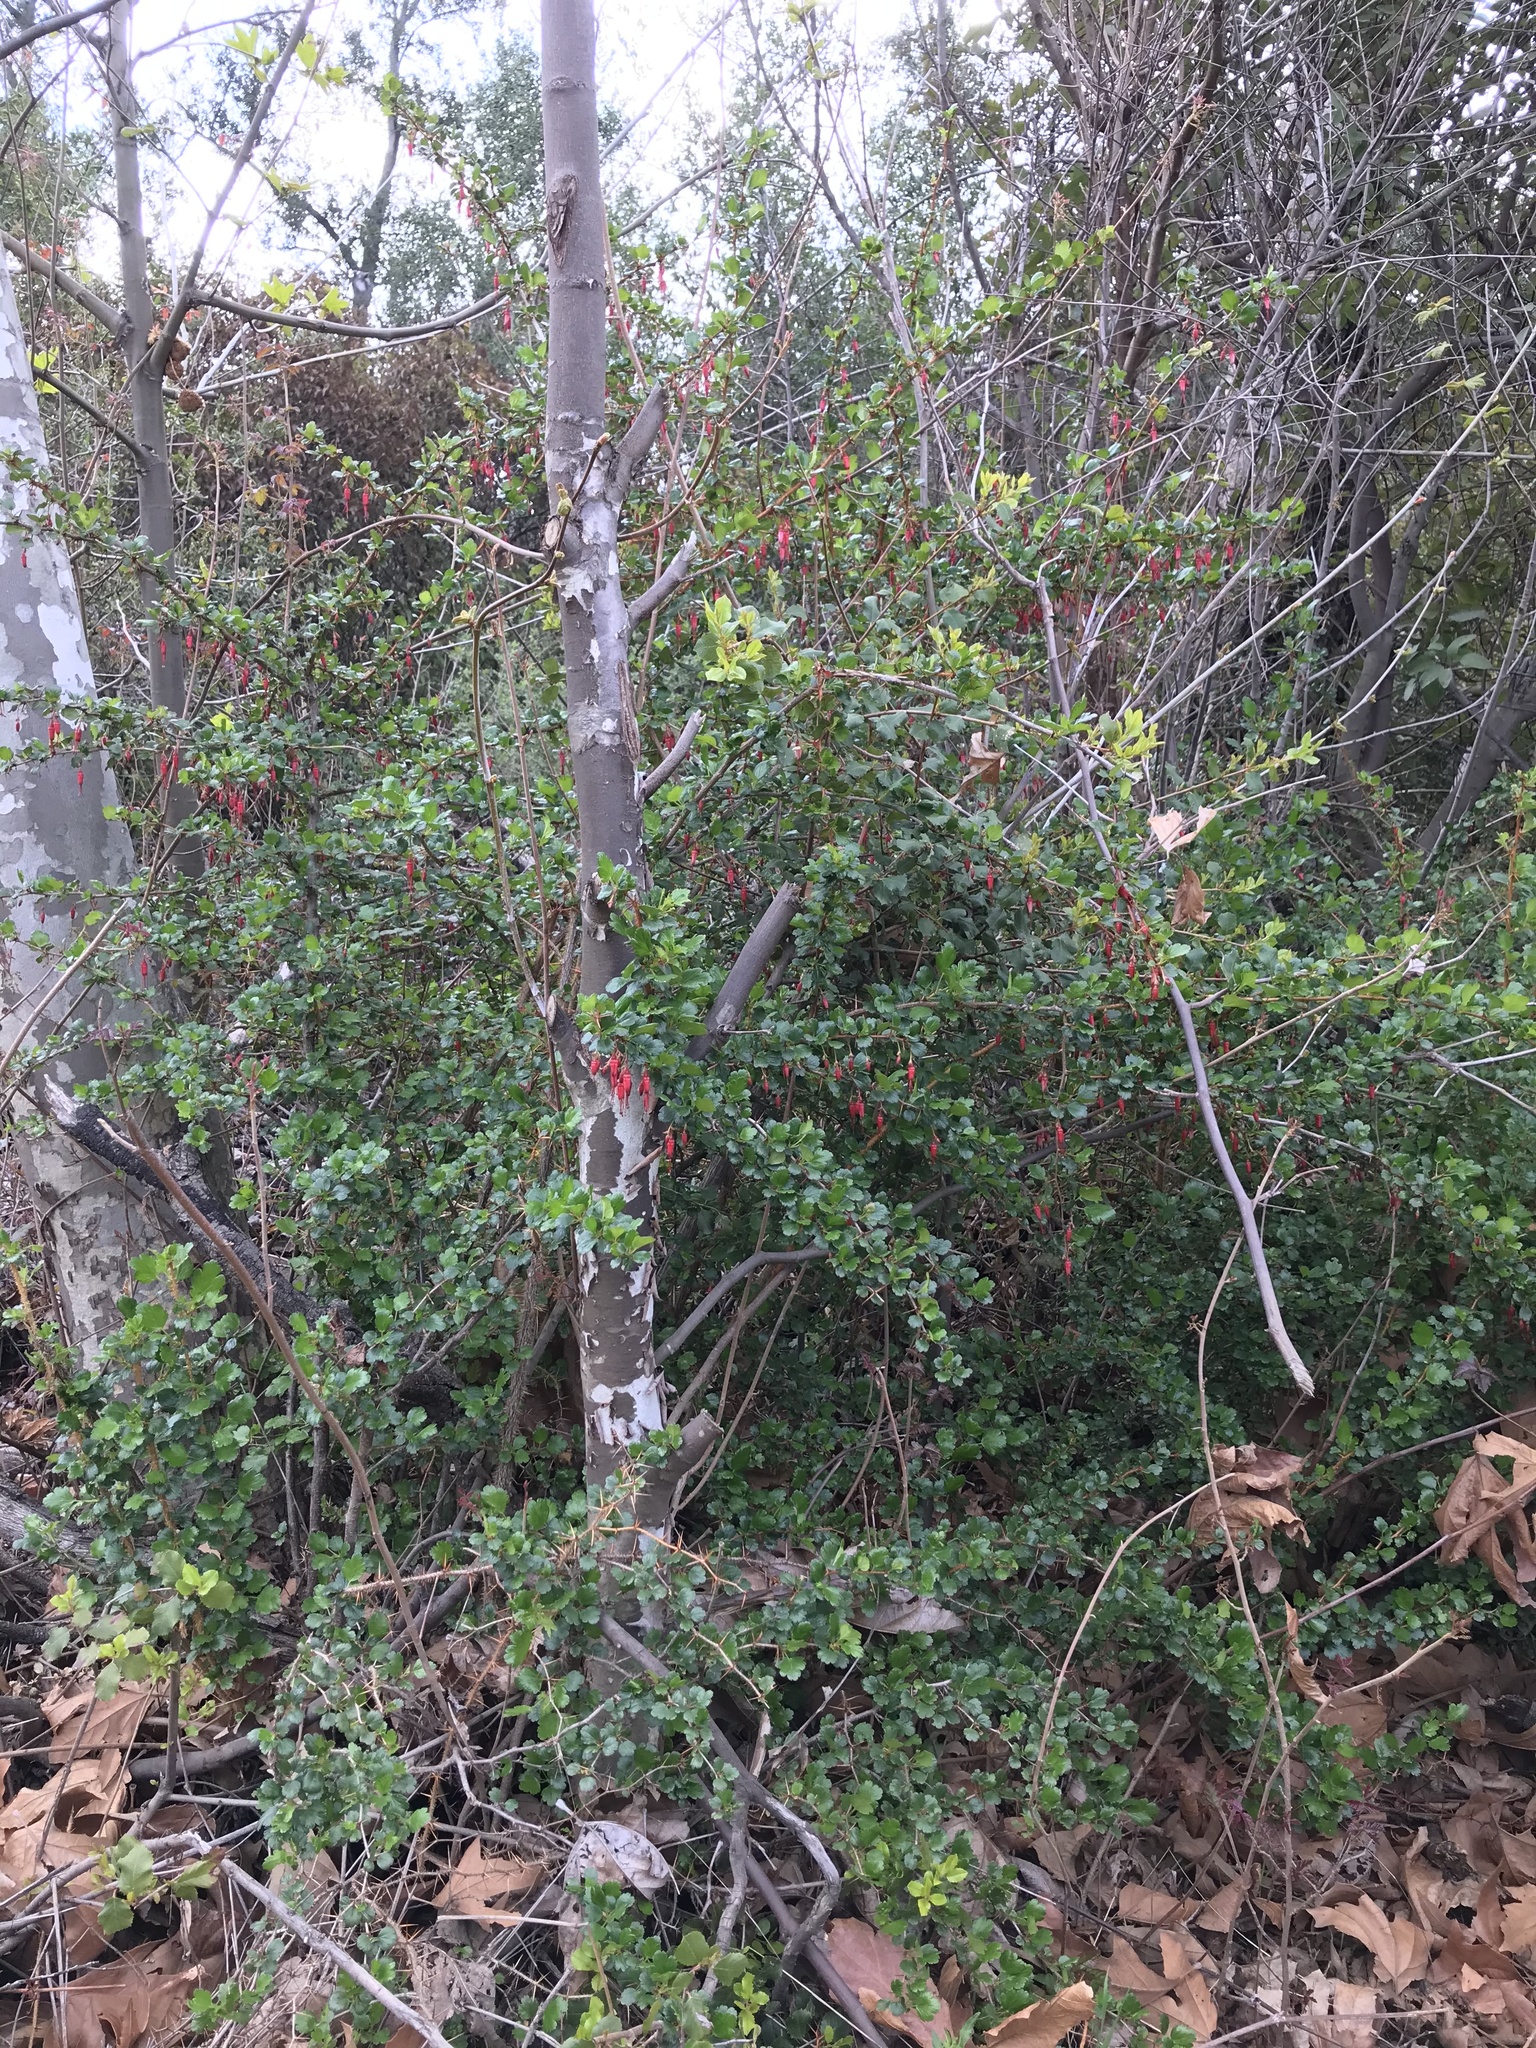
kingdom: Plantae
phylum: Tracheophyta
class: Magnoliopsida
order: Saxifragales
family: Grossulariaceae
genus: Ribes
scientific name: Ribes speciosum
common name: Fuchsia-flower gooseberry
